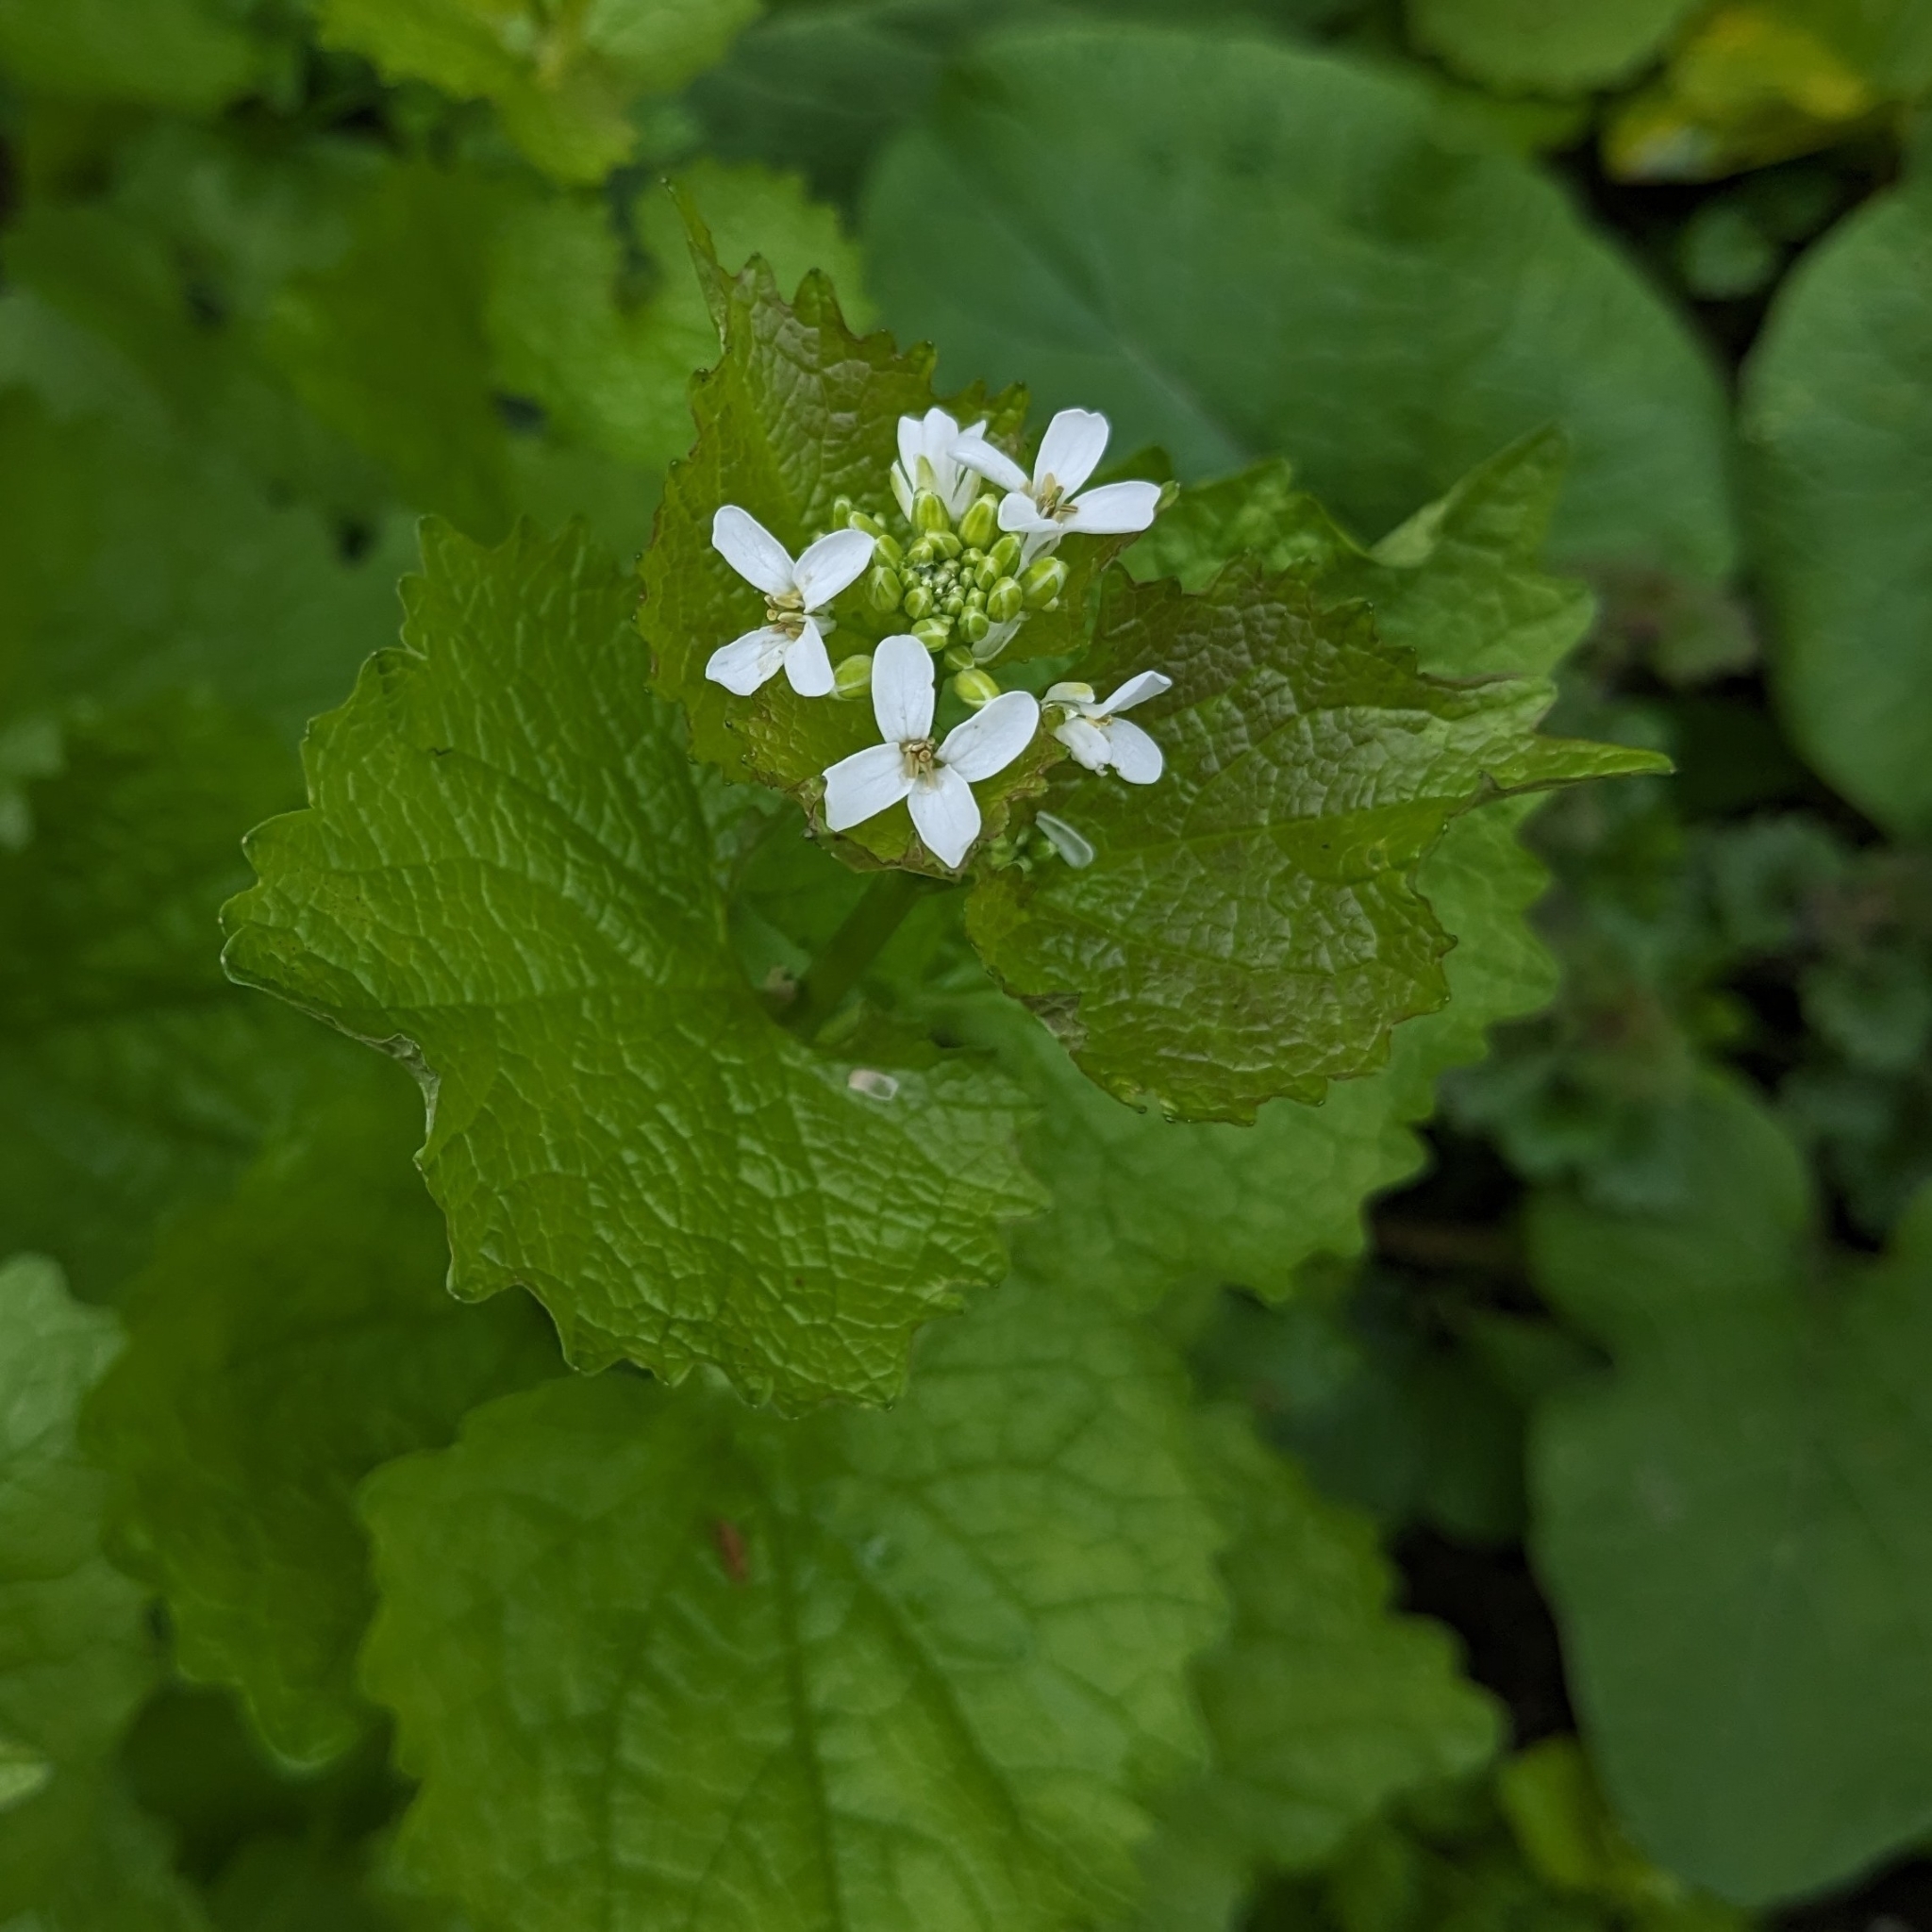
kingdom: Plantae
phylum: Tracheophyta
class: Magnoliopsida
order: Brassicales
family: Brassicaceae
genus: Alliaria
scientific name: Alliaria petiolata
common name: Garlic mustard
